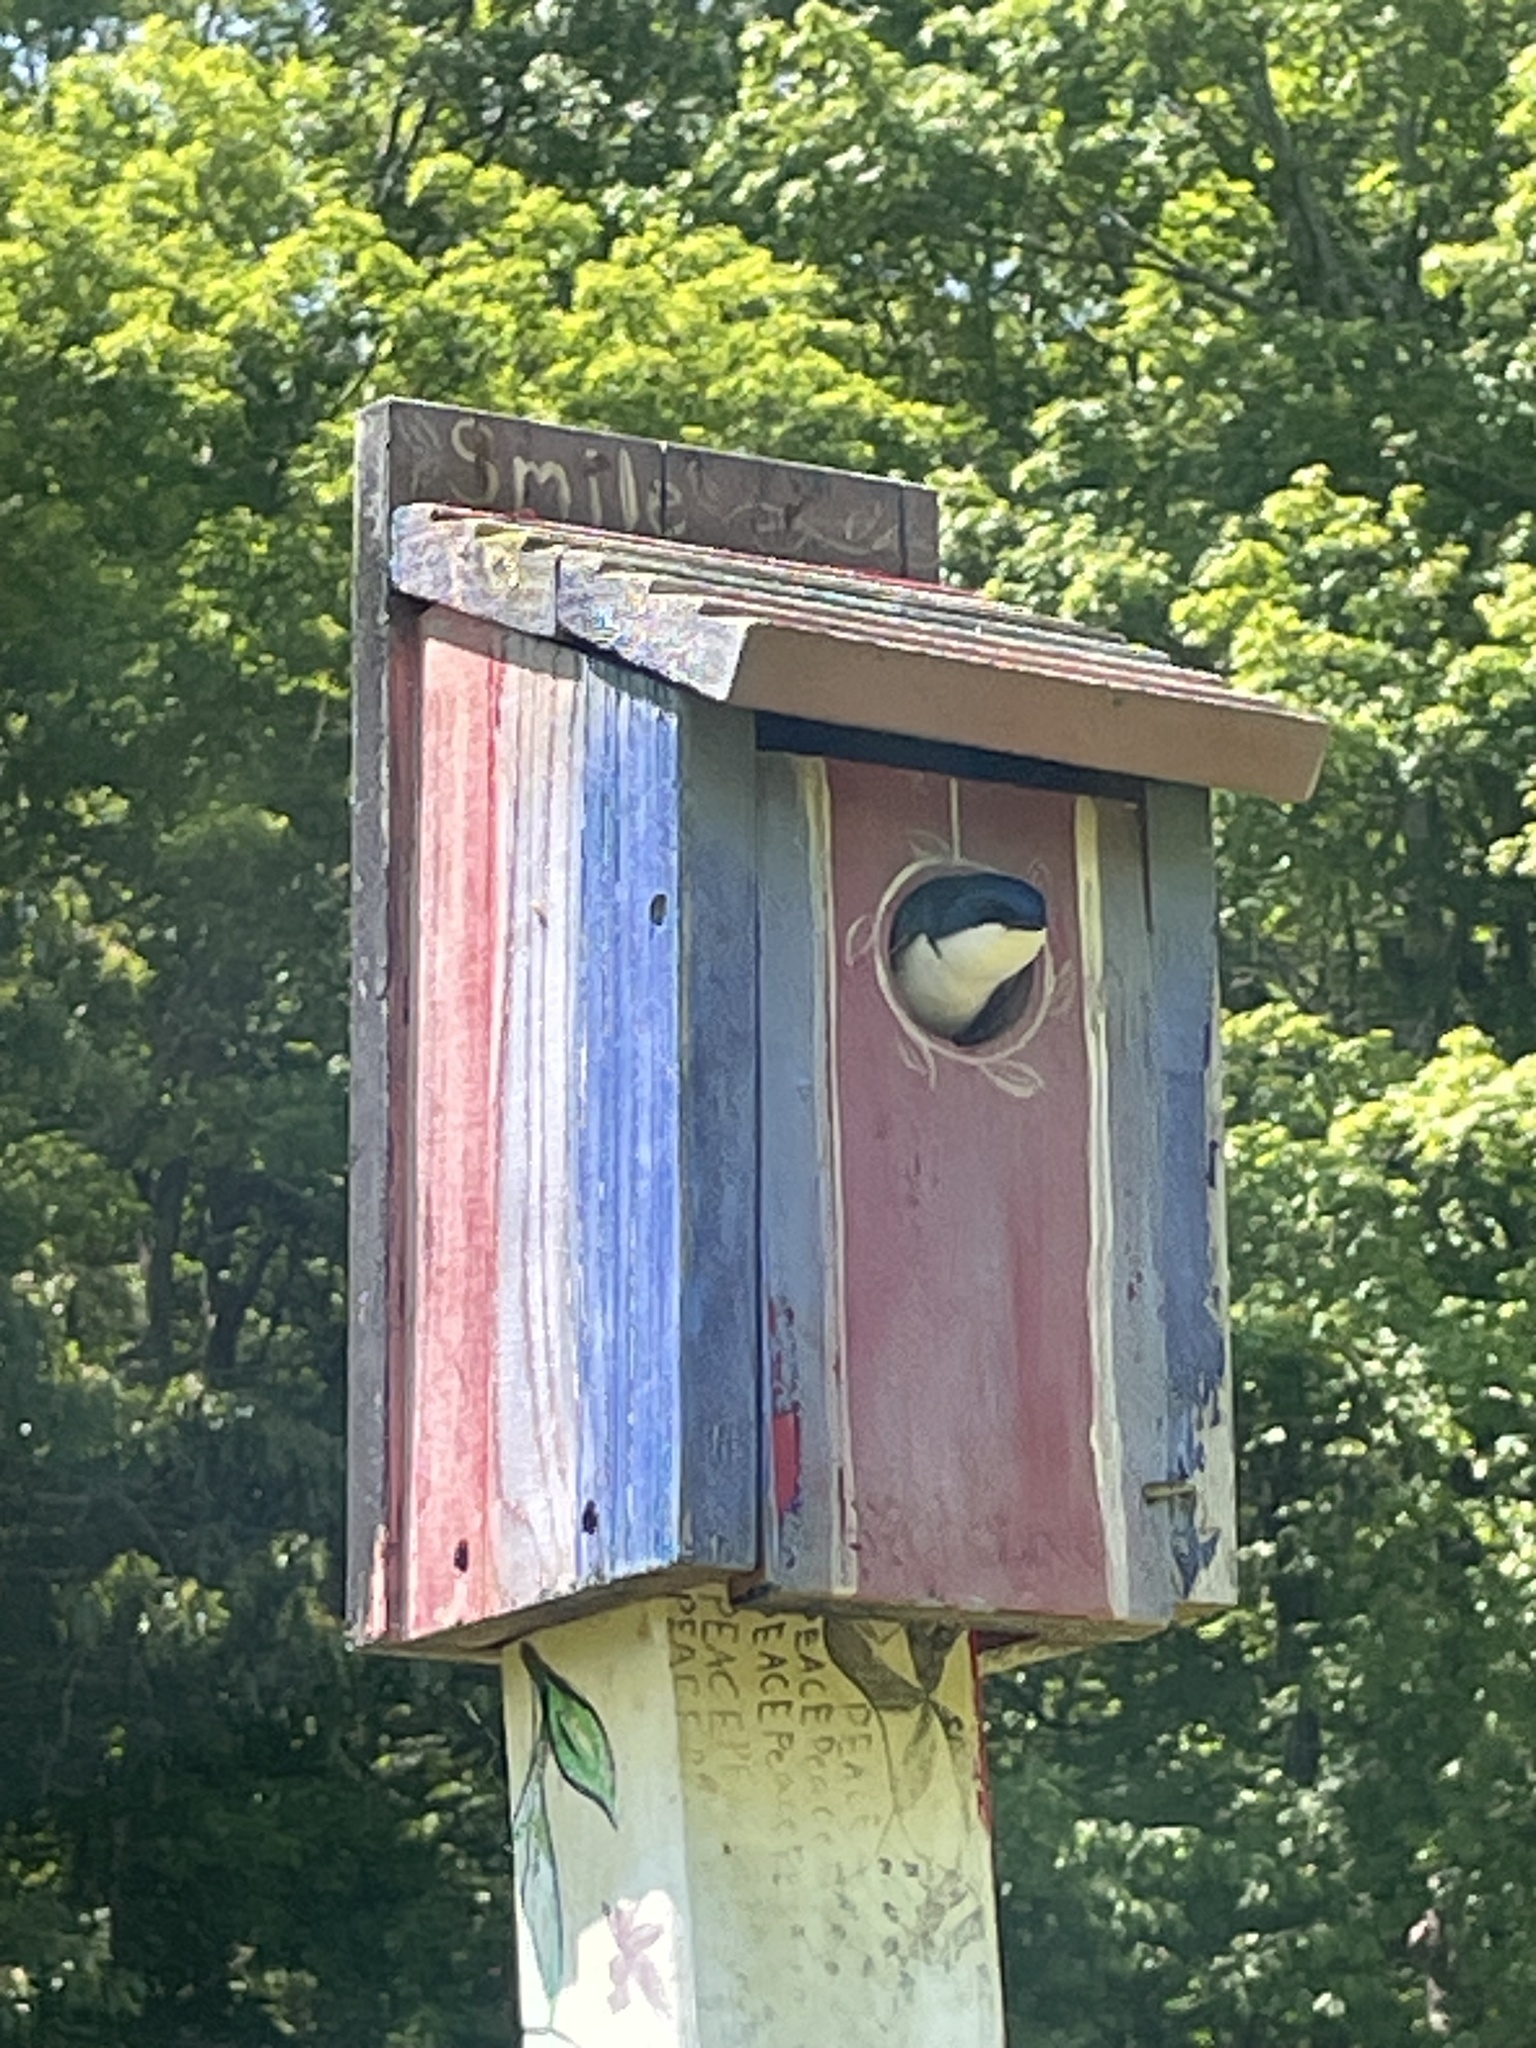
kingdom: Animalia
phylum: Chordata
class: Aves
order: Passeriformes
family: Hirundinidae
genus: Tachycineta
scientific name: Tachycineta bicolor
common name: Tree swallow
